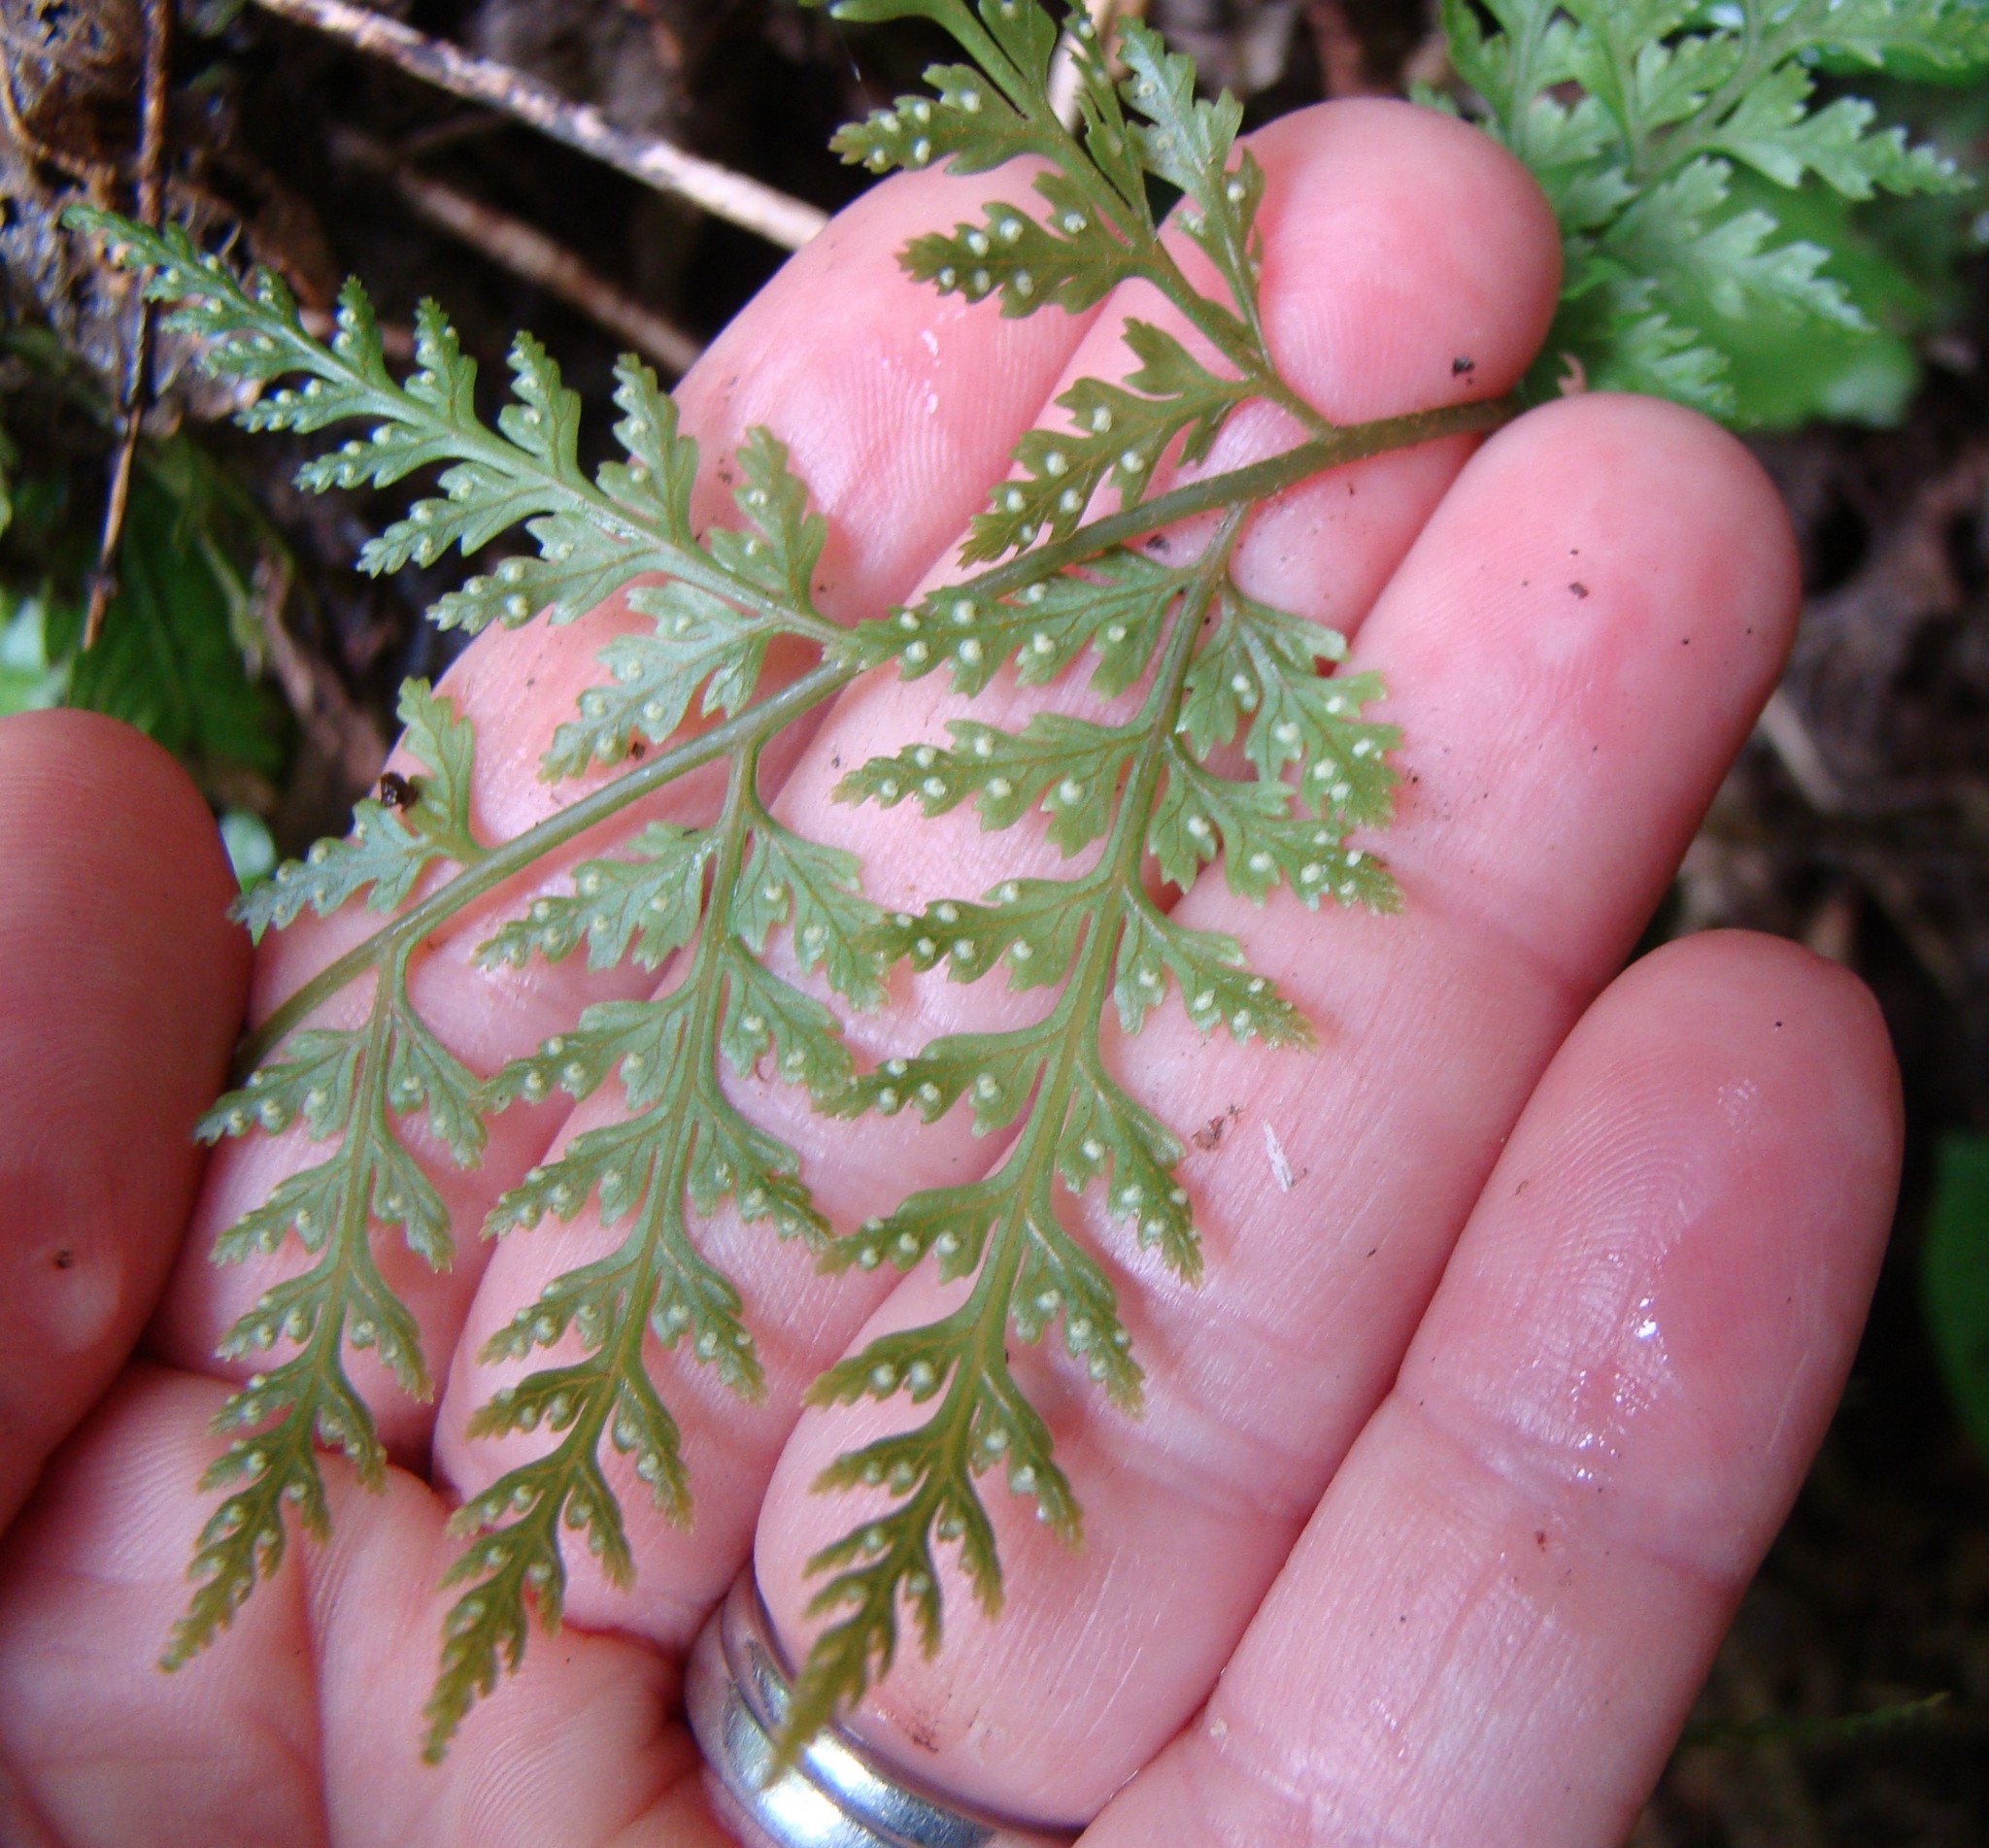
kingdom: Plantae
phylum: Tracheophyta
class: Polypodiopsida
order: Polypodiales
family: Dryopteridaceae
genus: Parapolystichum
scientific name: Parapolystichum glabellum
